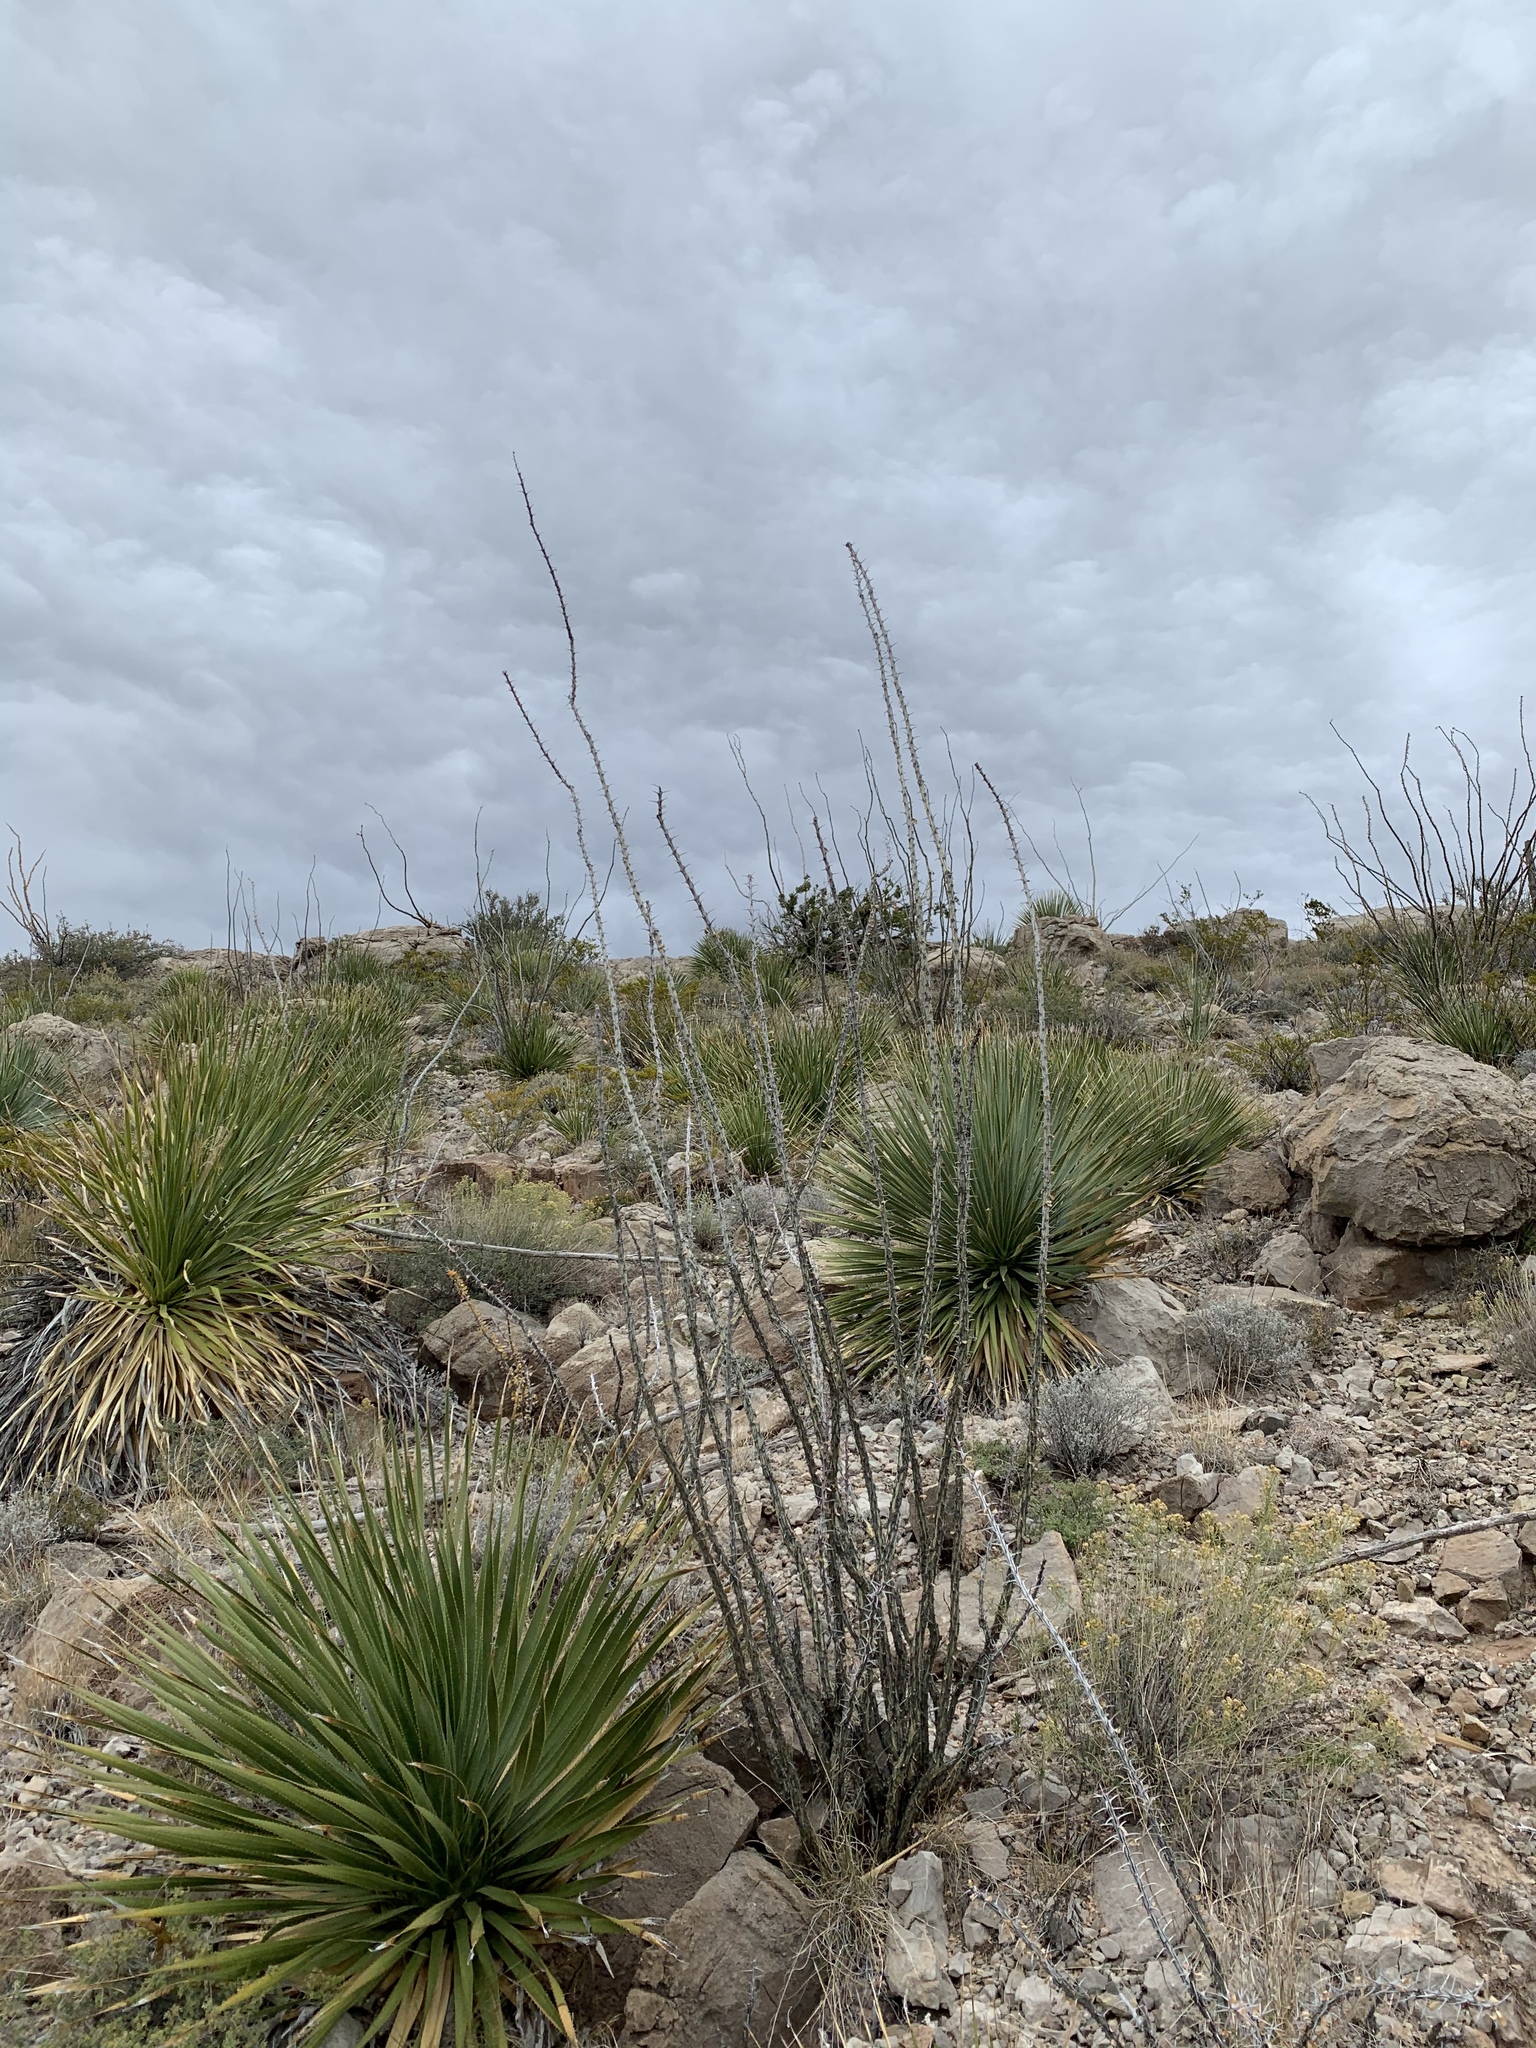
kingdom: Plantae
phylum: Tracheophyta
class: Magnoliopsida
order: Ericales
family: Fouquieriaceae
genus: Fouquieria
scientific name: Fouquieria splendens
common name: Vine-cactus
